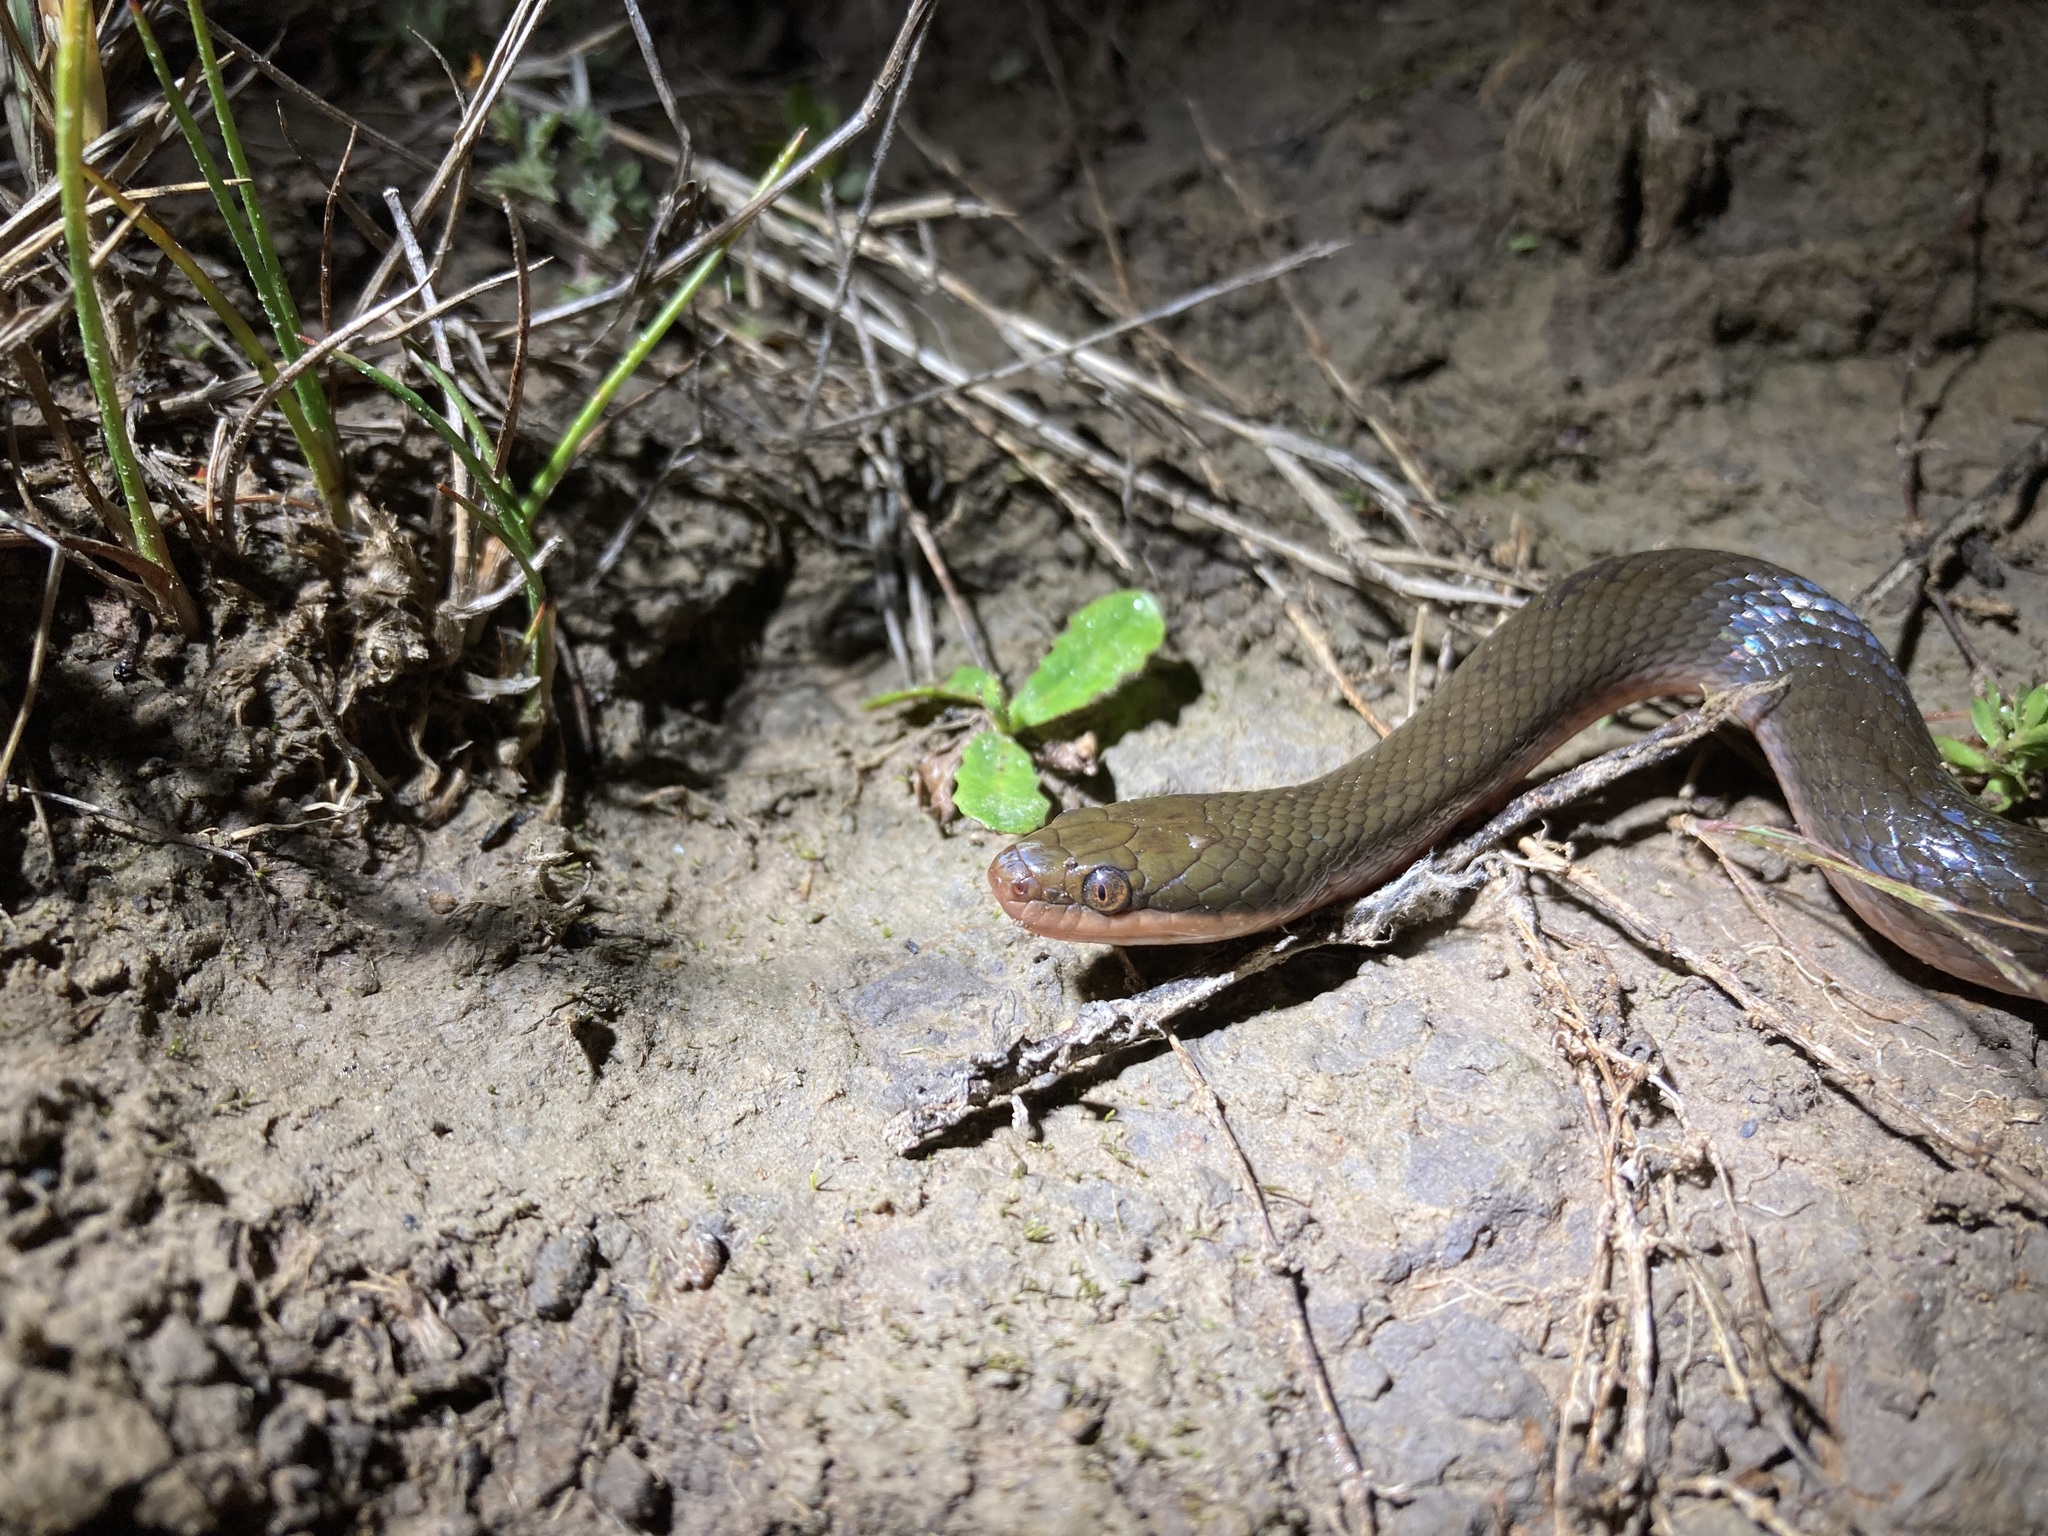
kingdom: Animalia
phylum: Chordata
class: Squamata
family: Lamprophiidae
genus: Lycodonomorphus
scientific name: Lycodonomorphus rufulus
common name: Brown water snake
